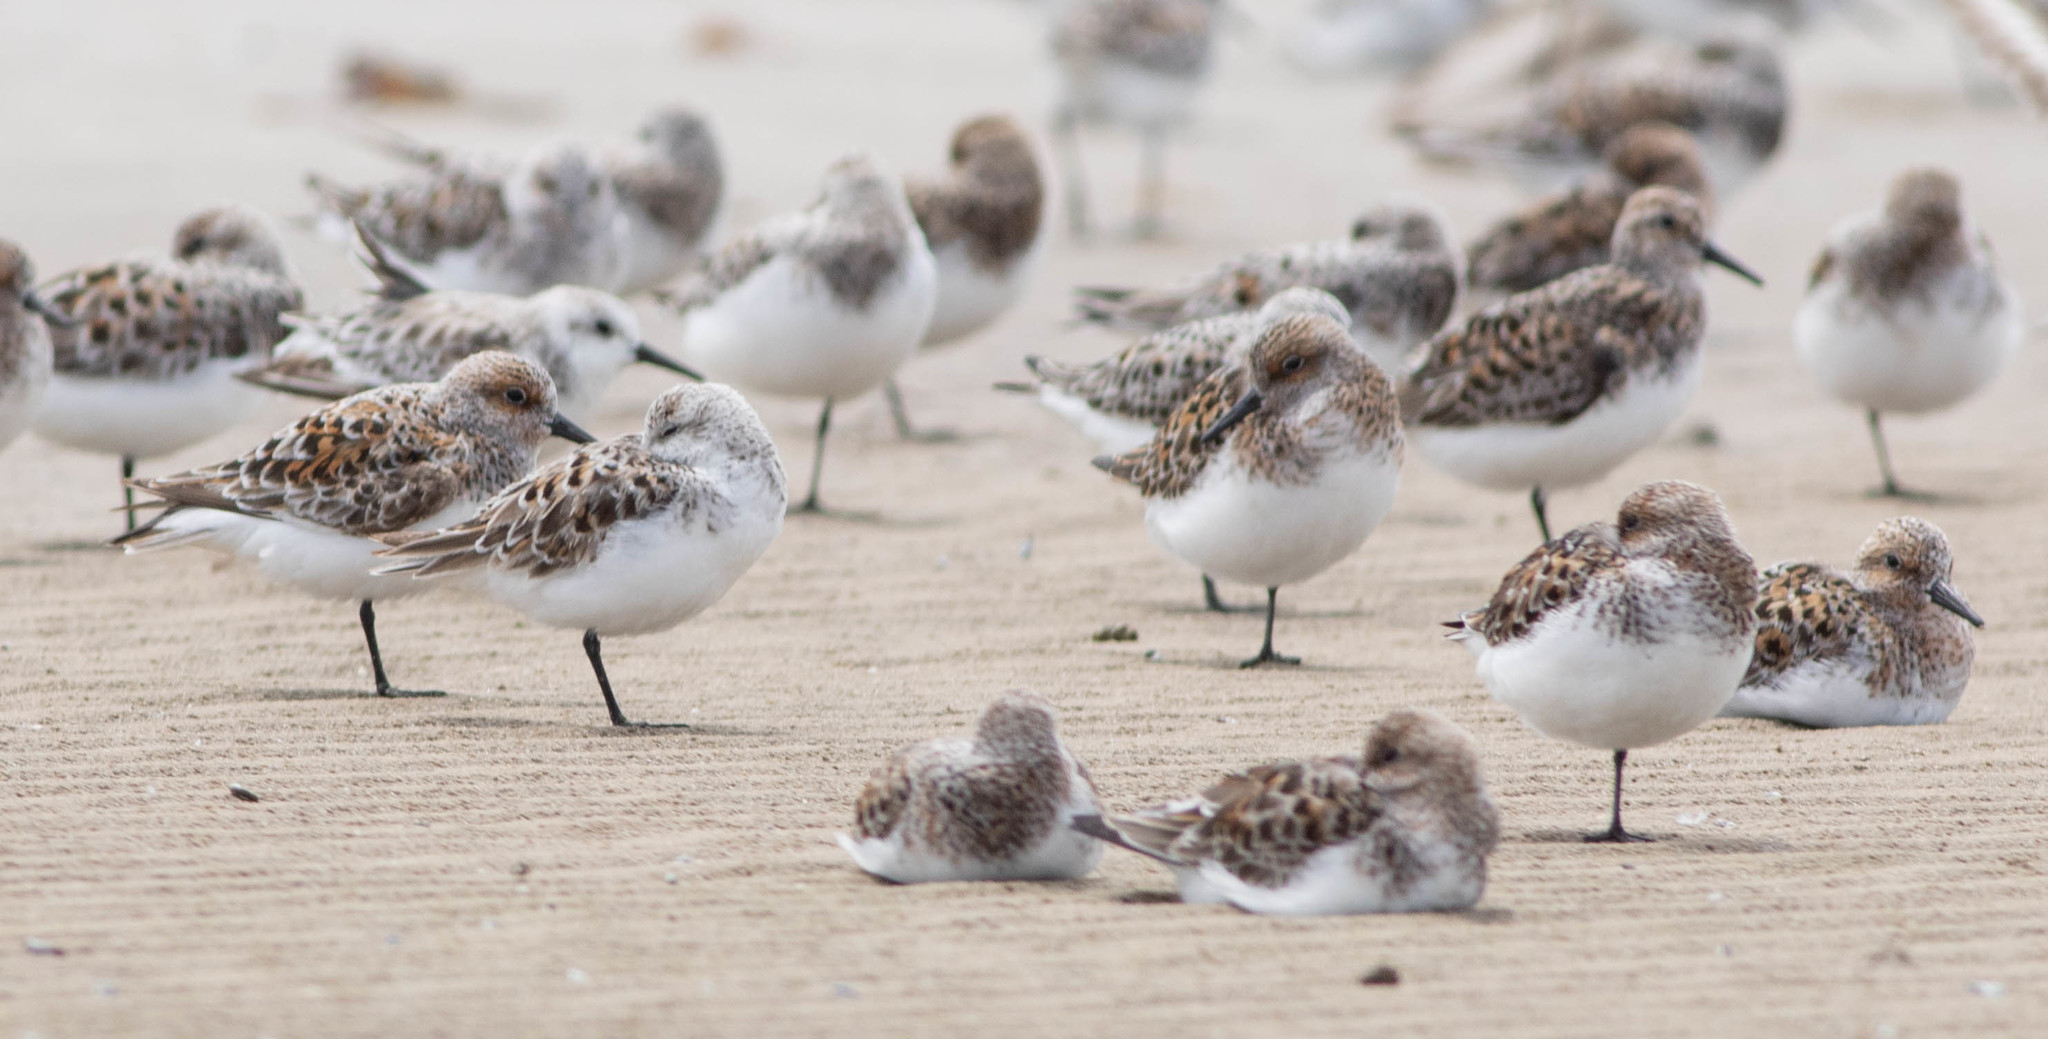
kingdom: Animalia
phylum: Chordata
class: Aves
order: Charadriiformes
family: Scolopacidae
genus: Calidris
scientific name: Calidris alba
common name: Sanderling
